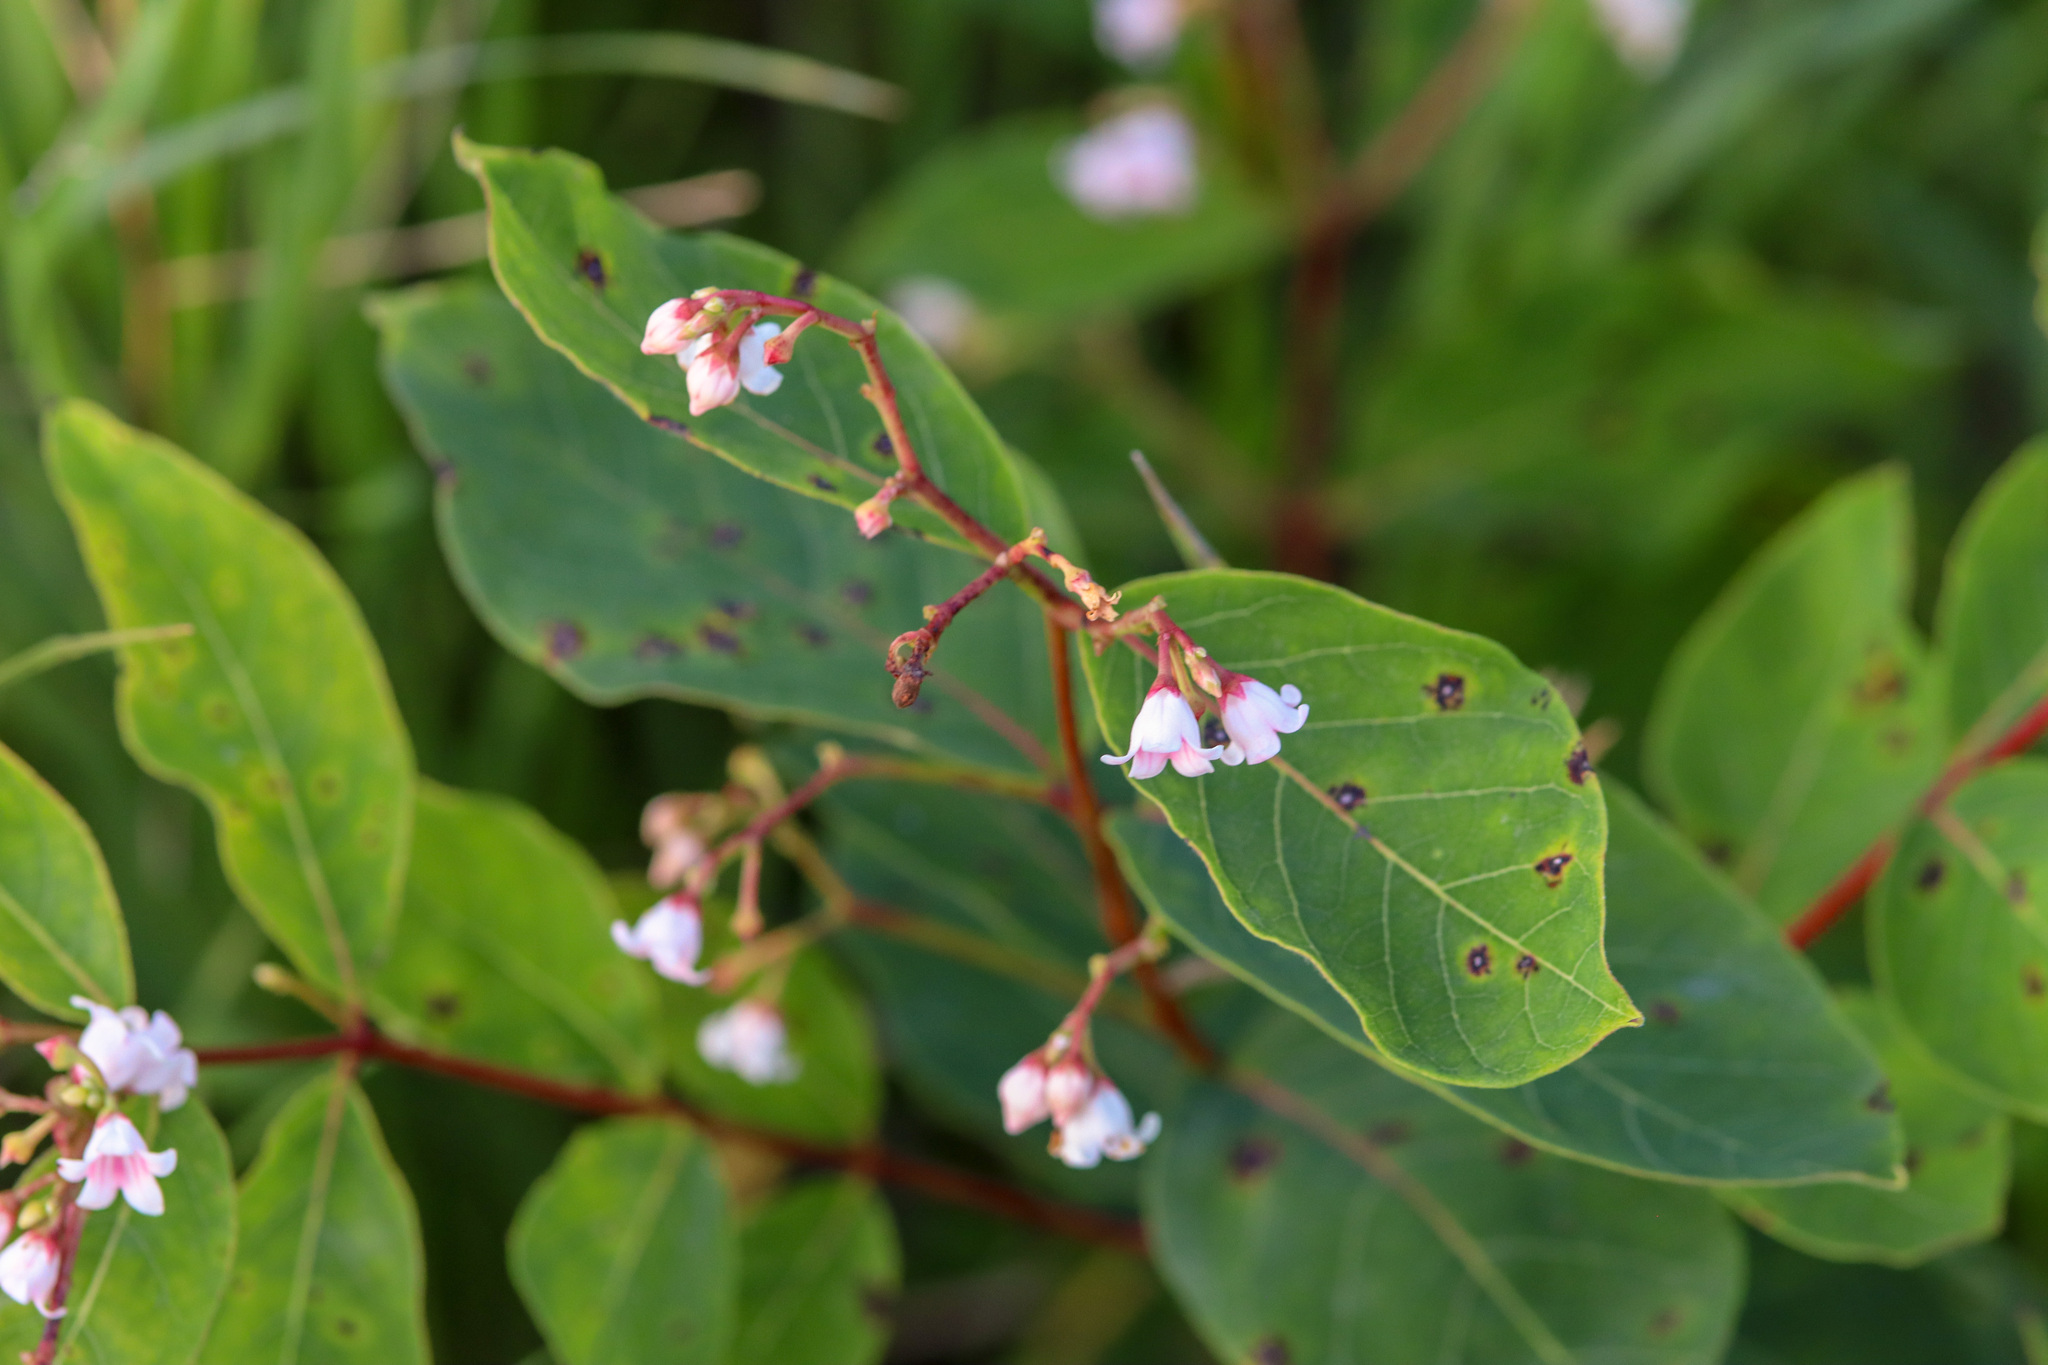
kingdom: Plantae
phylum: Tracheophyta
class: Magnoliopsida
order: Gentianales
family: Apocynaceae
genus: Apocynum
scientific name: Apocynum androsaemifolium
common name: Spreading dogbane
